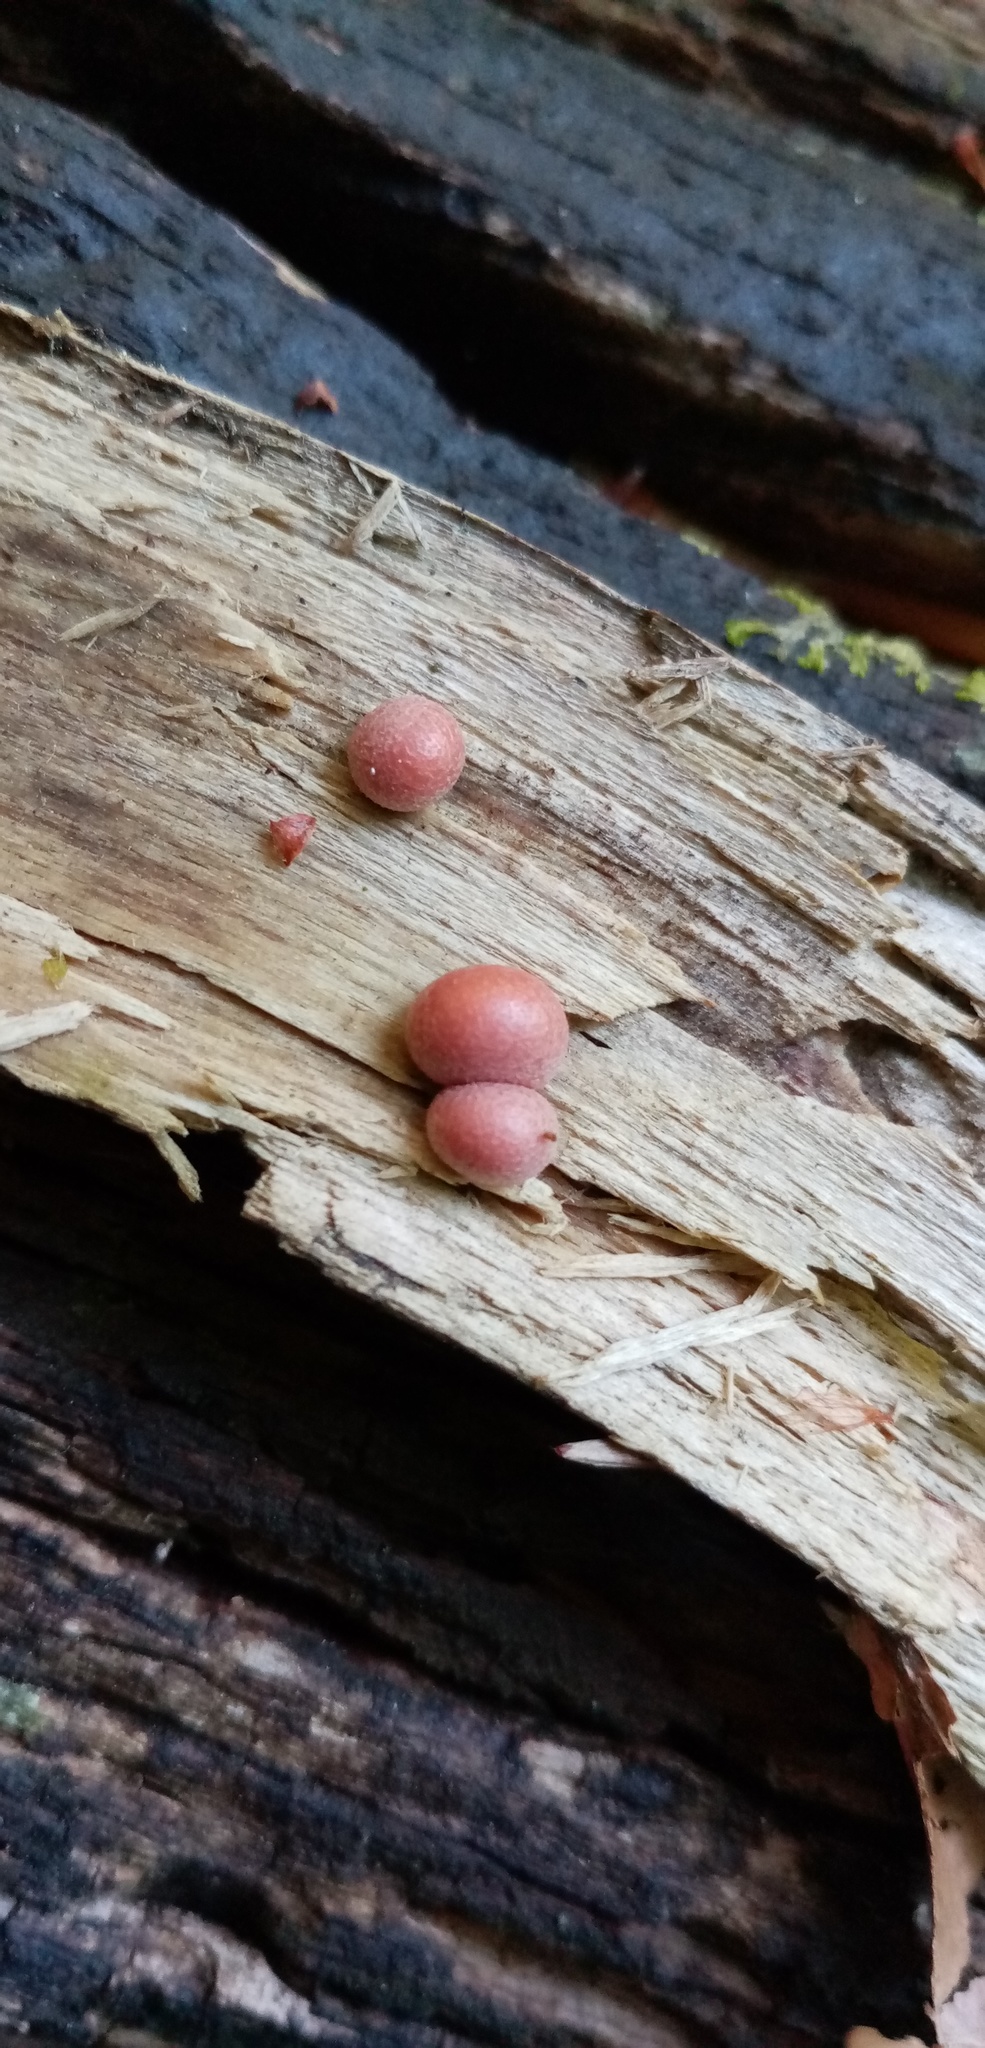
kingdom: Protozoa
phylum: Mycetozoa
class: Myxomycetes
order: Cribrariales
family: Tubiferaceae
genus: Lycogala
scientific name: Lycogala epidendrum
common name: Wolf's milk
